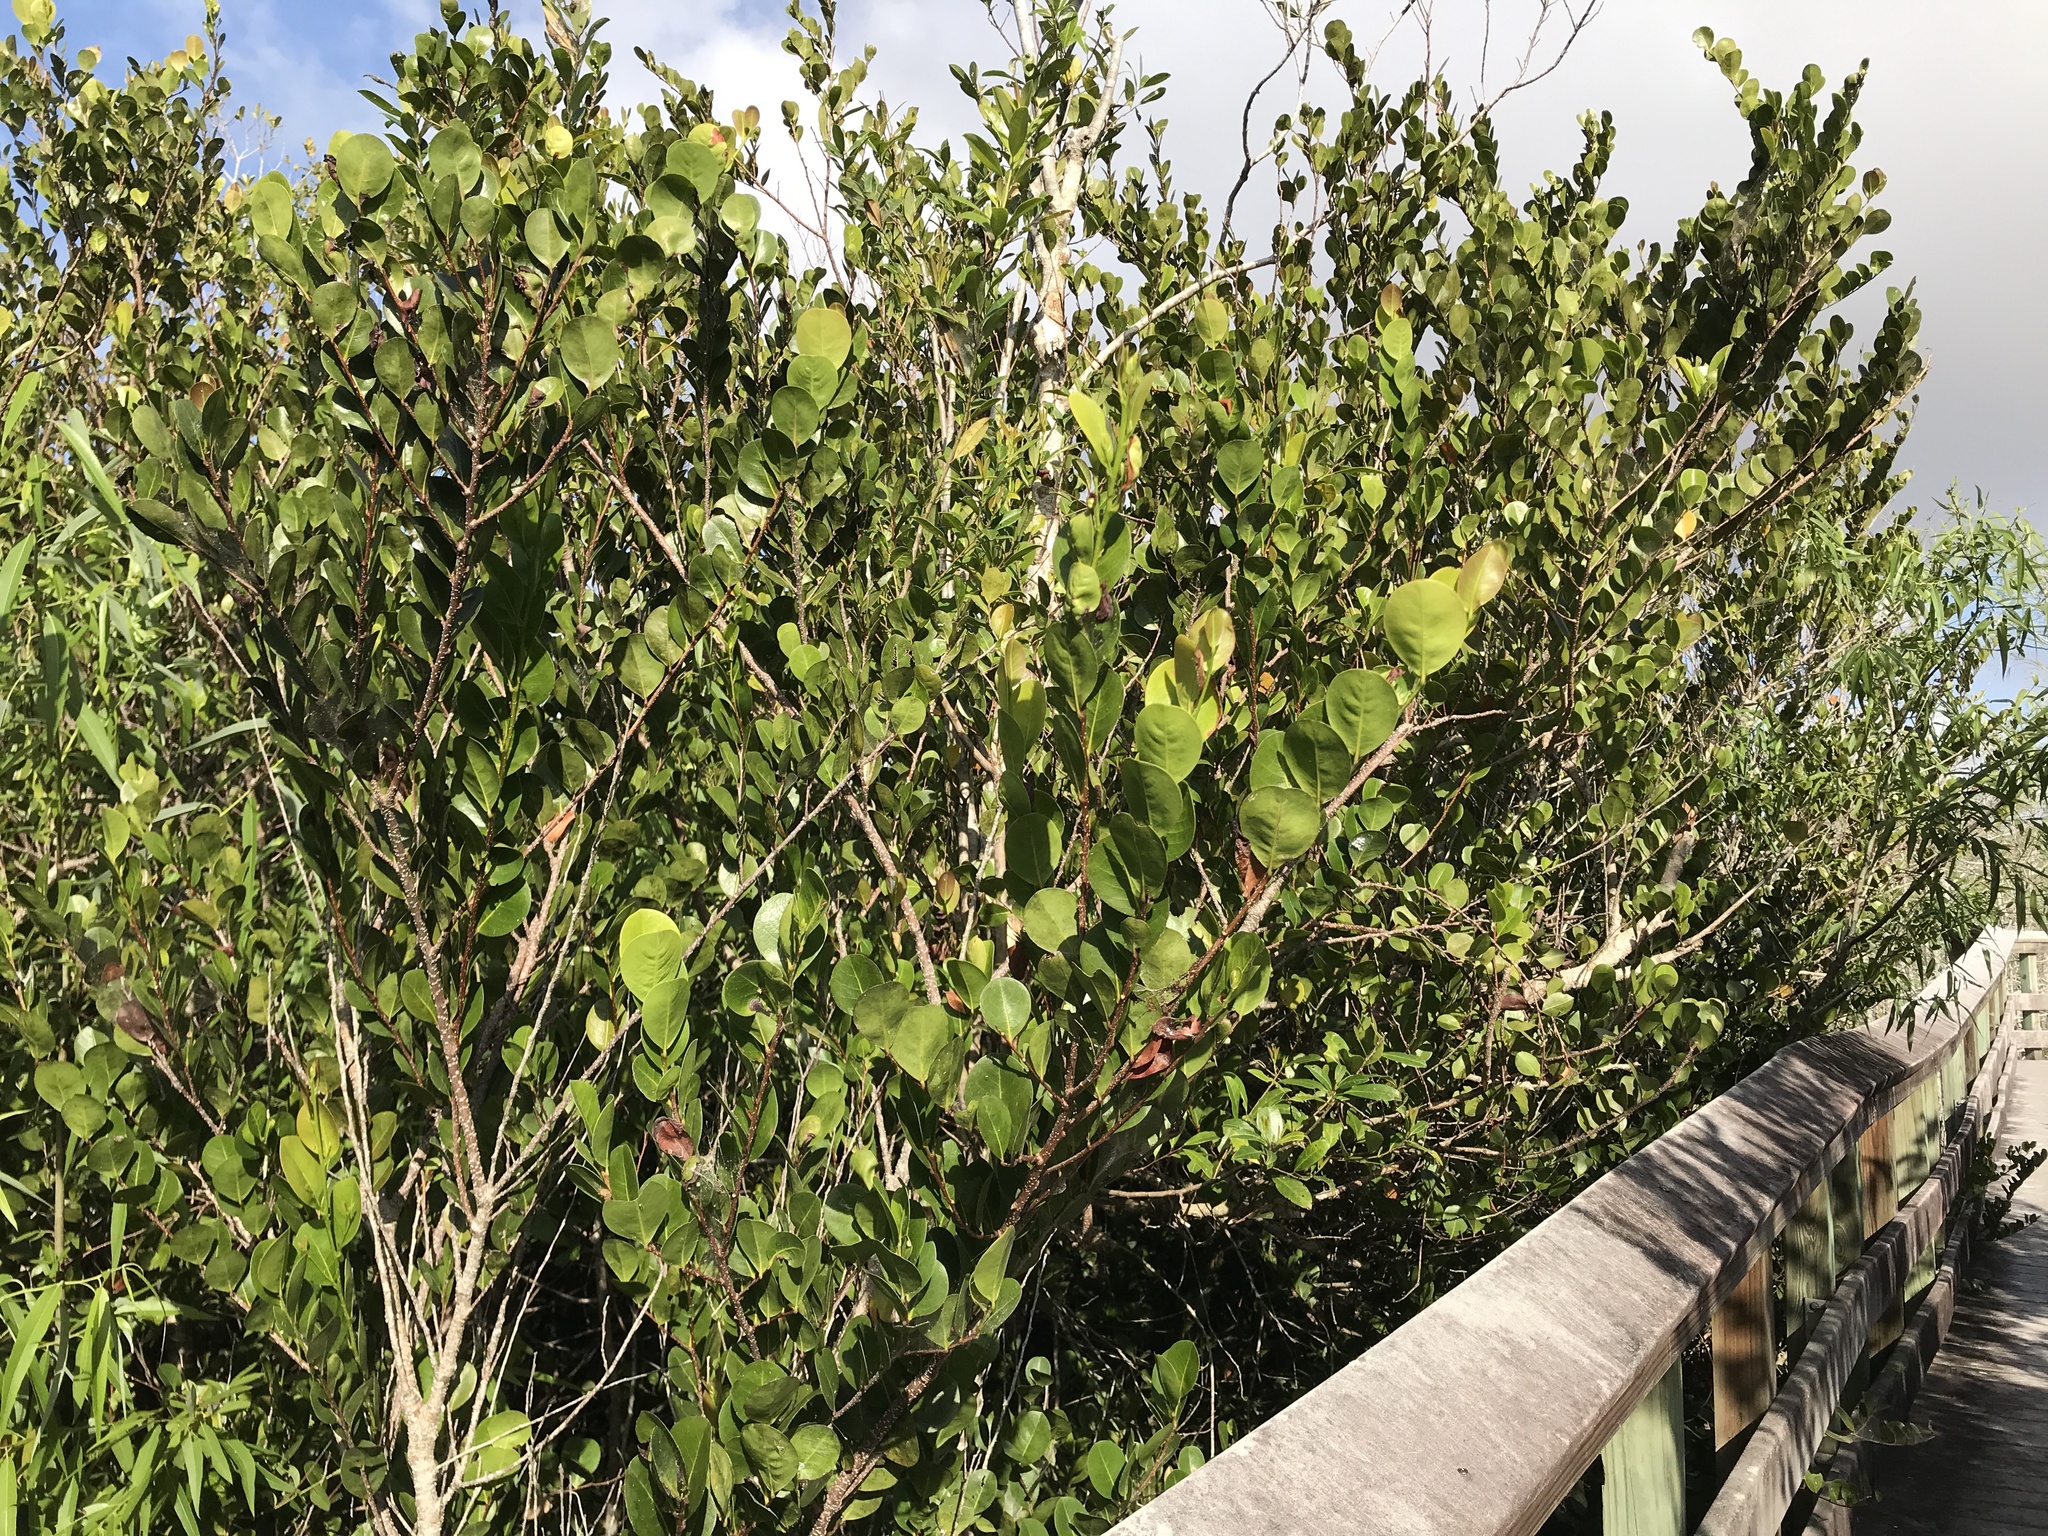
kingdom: Plantae
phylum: Tracheophyta
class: Magnoliopsida
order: Malpighiales
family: Chrysobalanaceae
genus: Chrysobalanus
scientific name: Chrysobalanus icaco
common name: Coco plum
